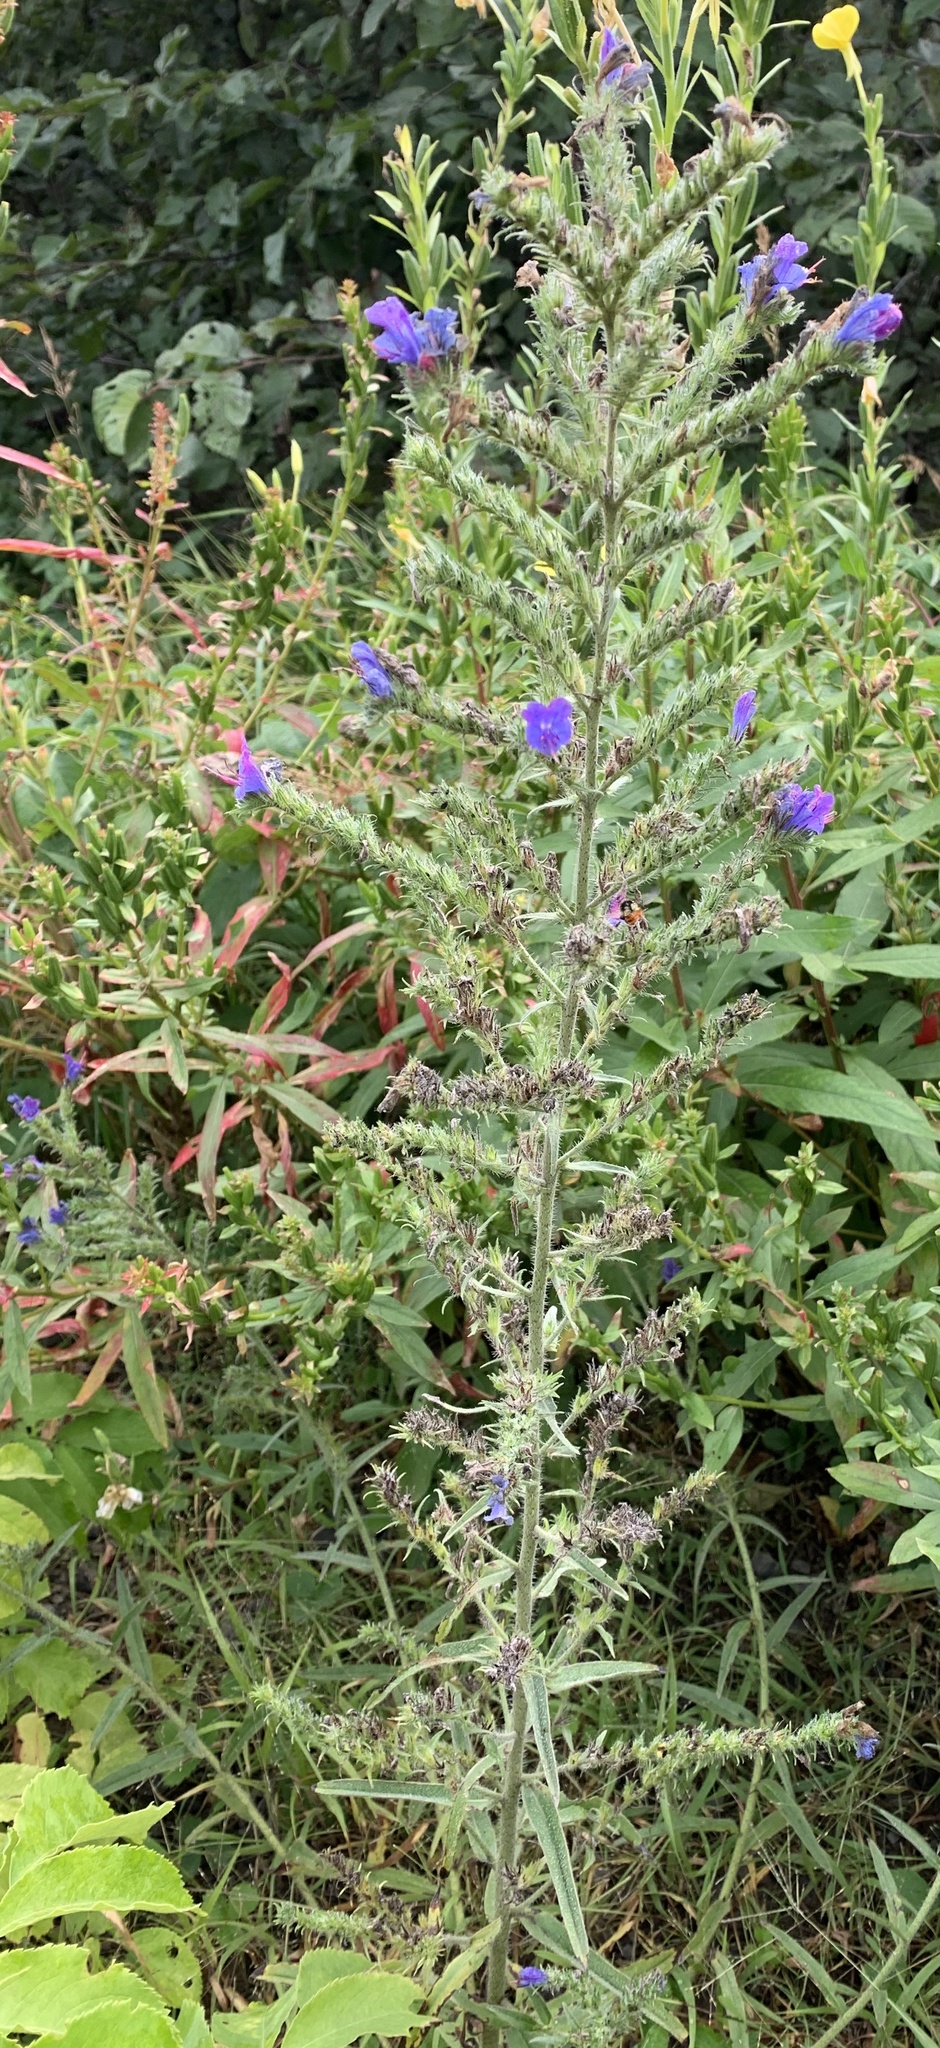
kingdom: Plantae
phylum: Tracheophyta
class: Magnoliopsida
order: Boraginales
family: Boraginaceae
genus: Echium
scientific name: Echium vulgare
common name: Common viper's bugloss
